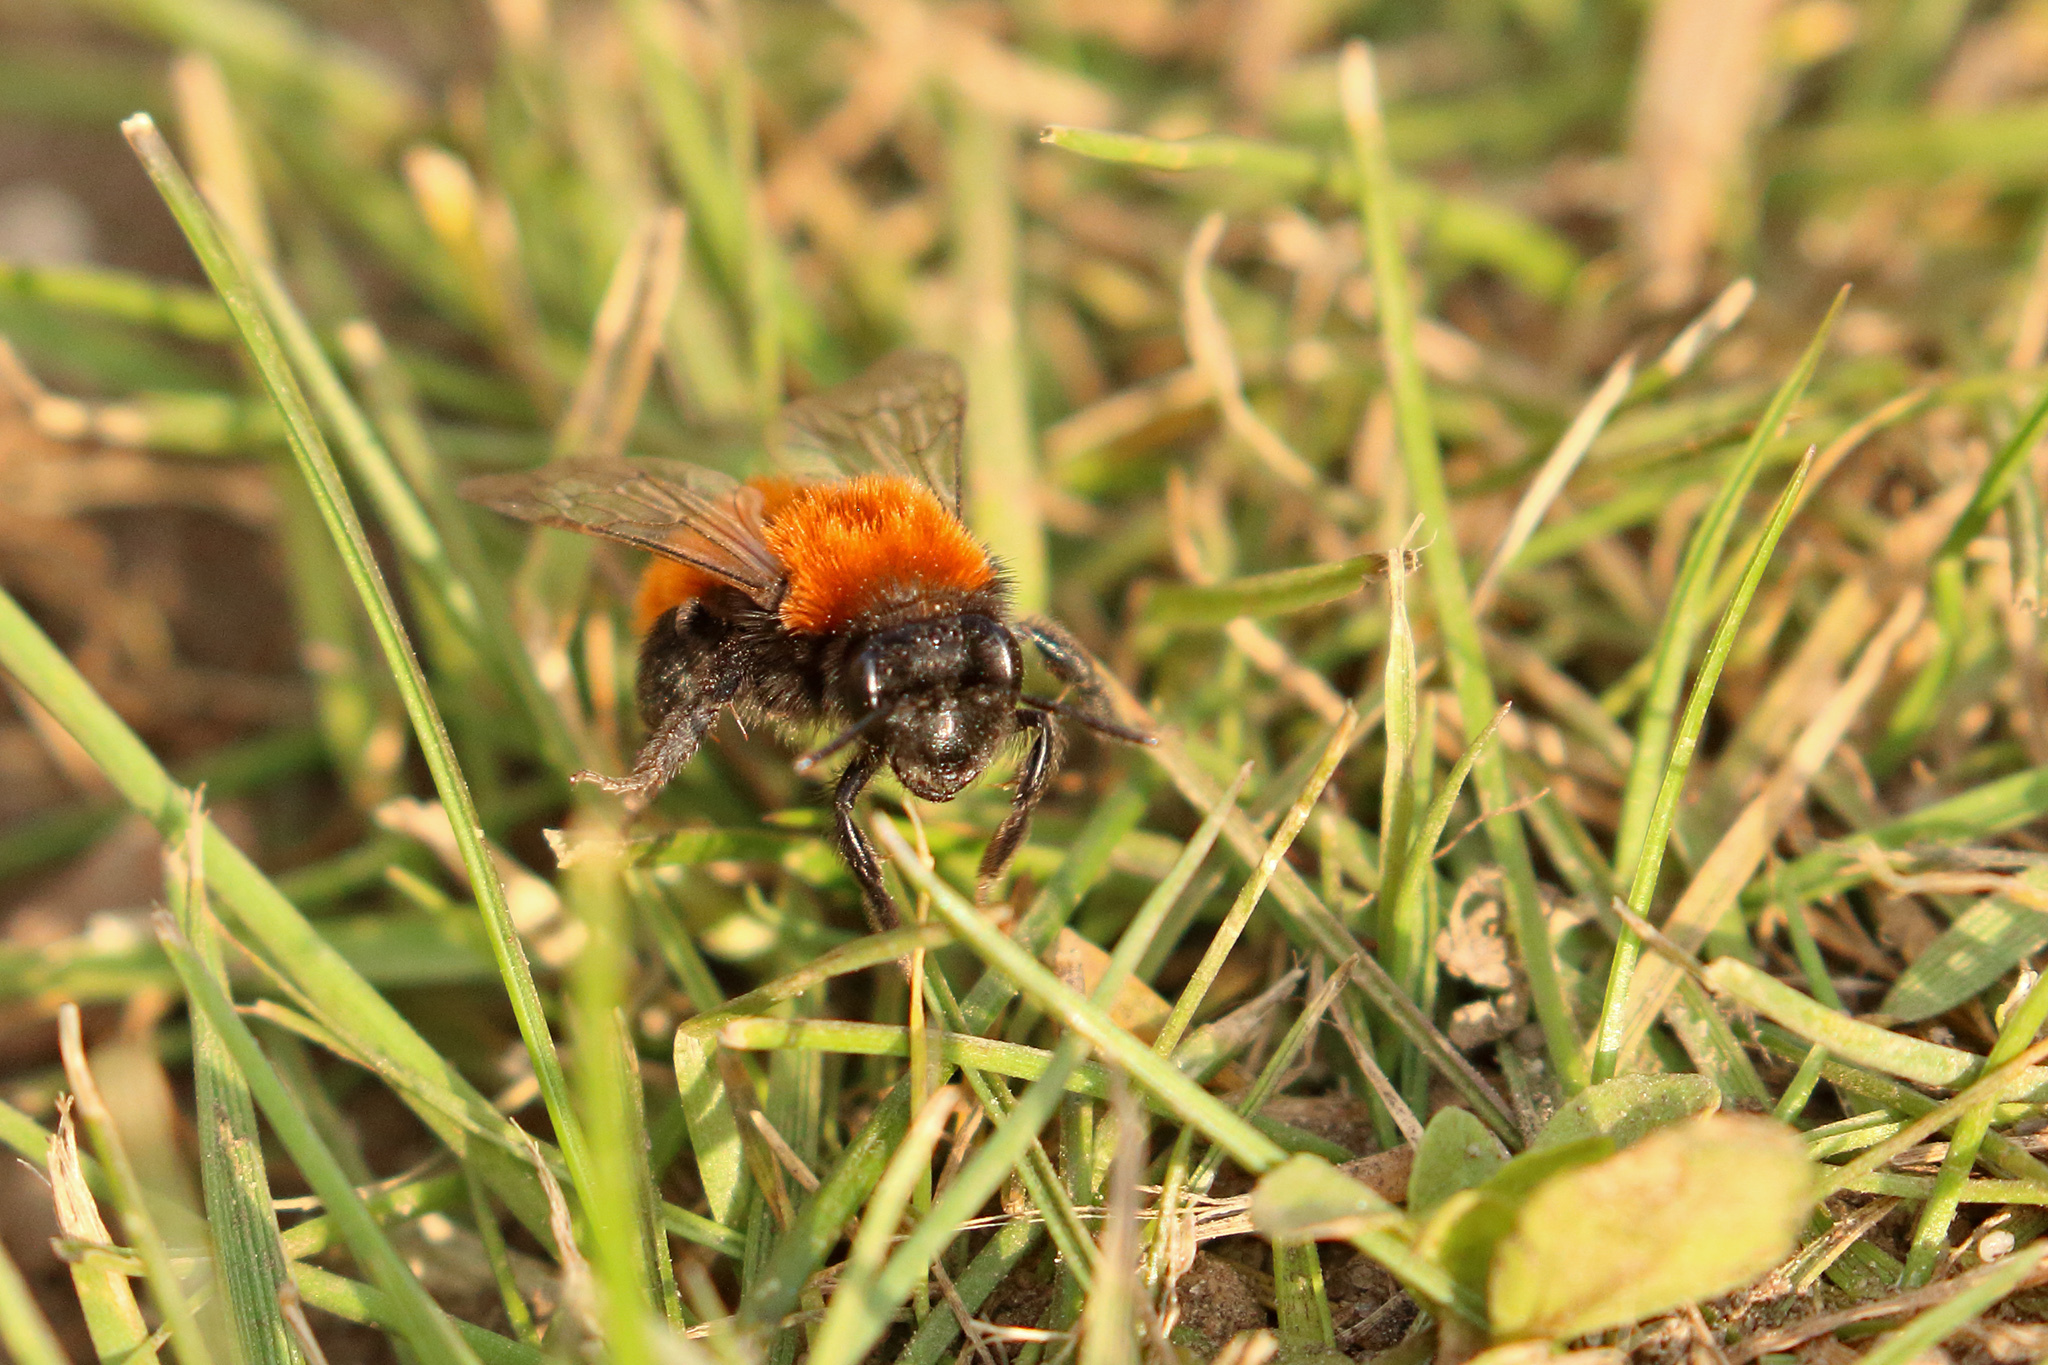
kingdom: Animalia
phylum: Arthropoda
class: Insecta
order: Hymenoptera
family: Andrenidae
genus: Andrena
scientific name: Andrena fulva
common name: Tawny mining bee
